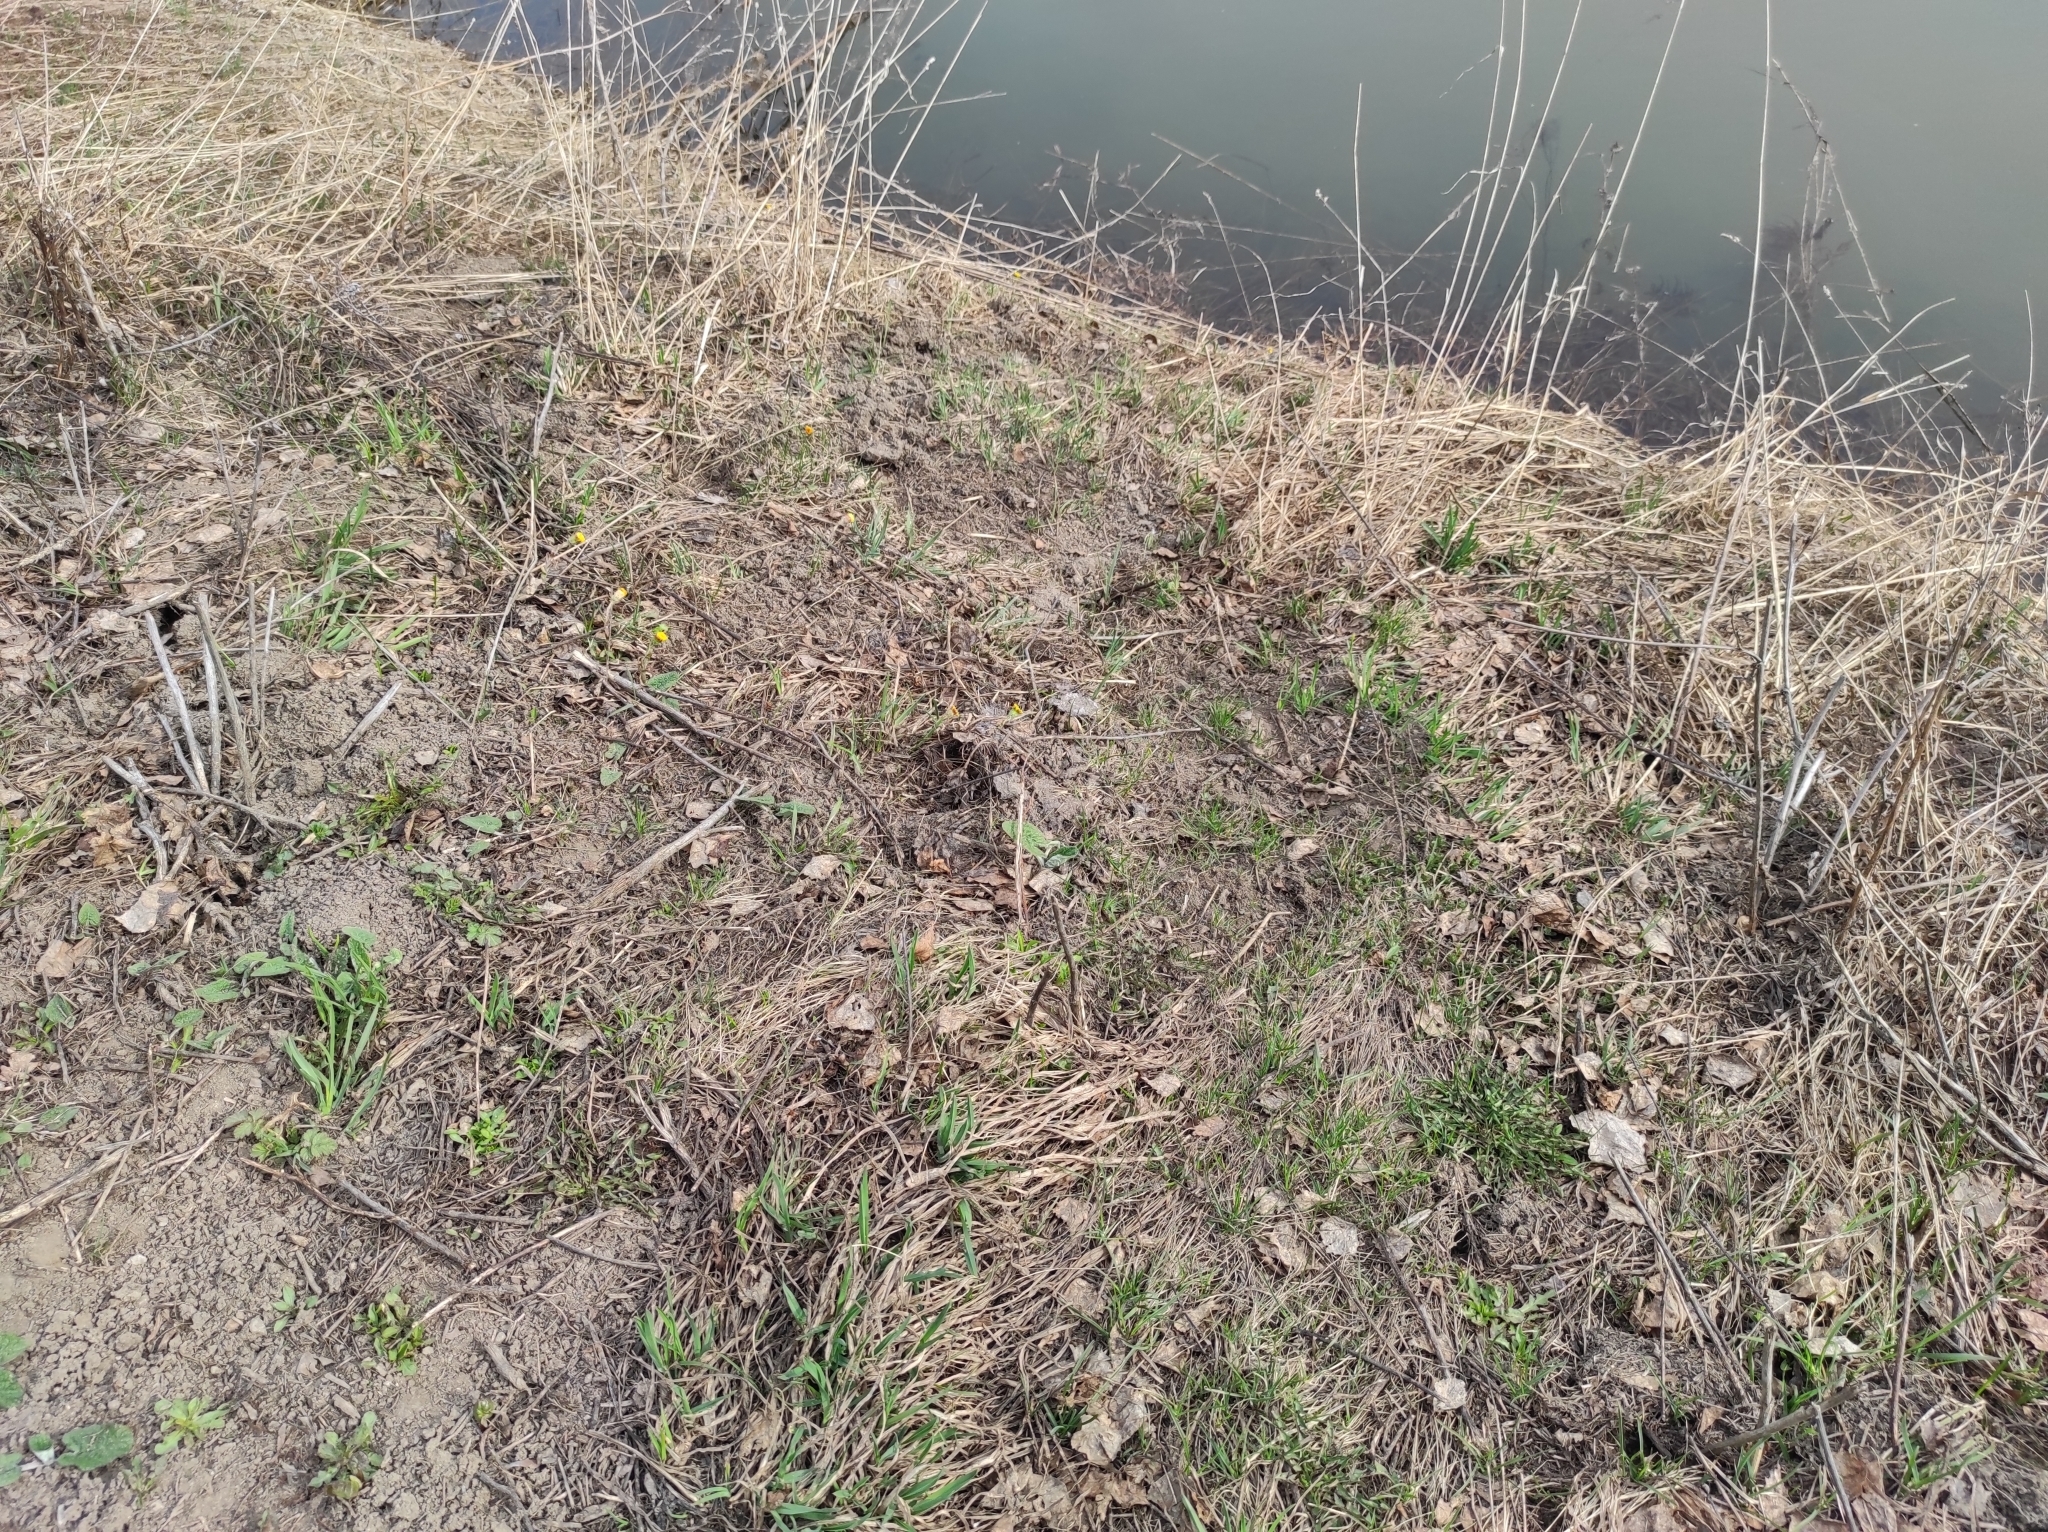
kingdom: Plantae
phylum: Tracheophyta
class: Magnoliopsida
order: Asterales
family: Asteraceae
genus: Tussilago
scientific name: Tussilago farfara
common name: Coltsfoot
